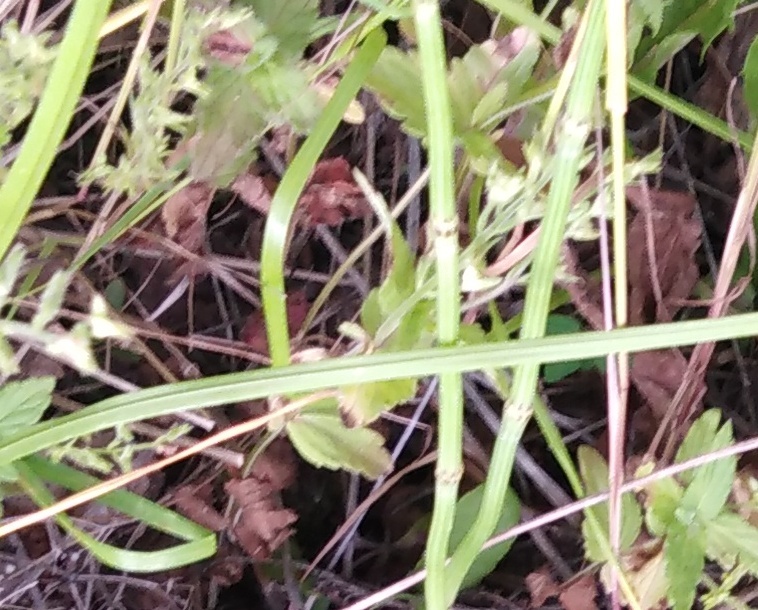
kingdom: Plantae
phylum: Tracheophyta
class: Magnoliopsida
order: Lamiales
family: Plantaginaceae
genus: Veronica
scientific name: Veronica chamaedrys
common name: Germander speedwell
